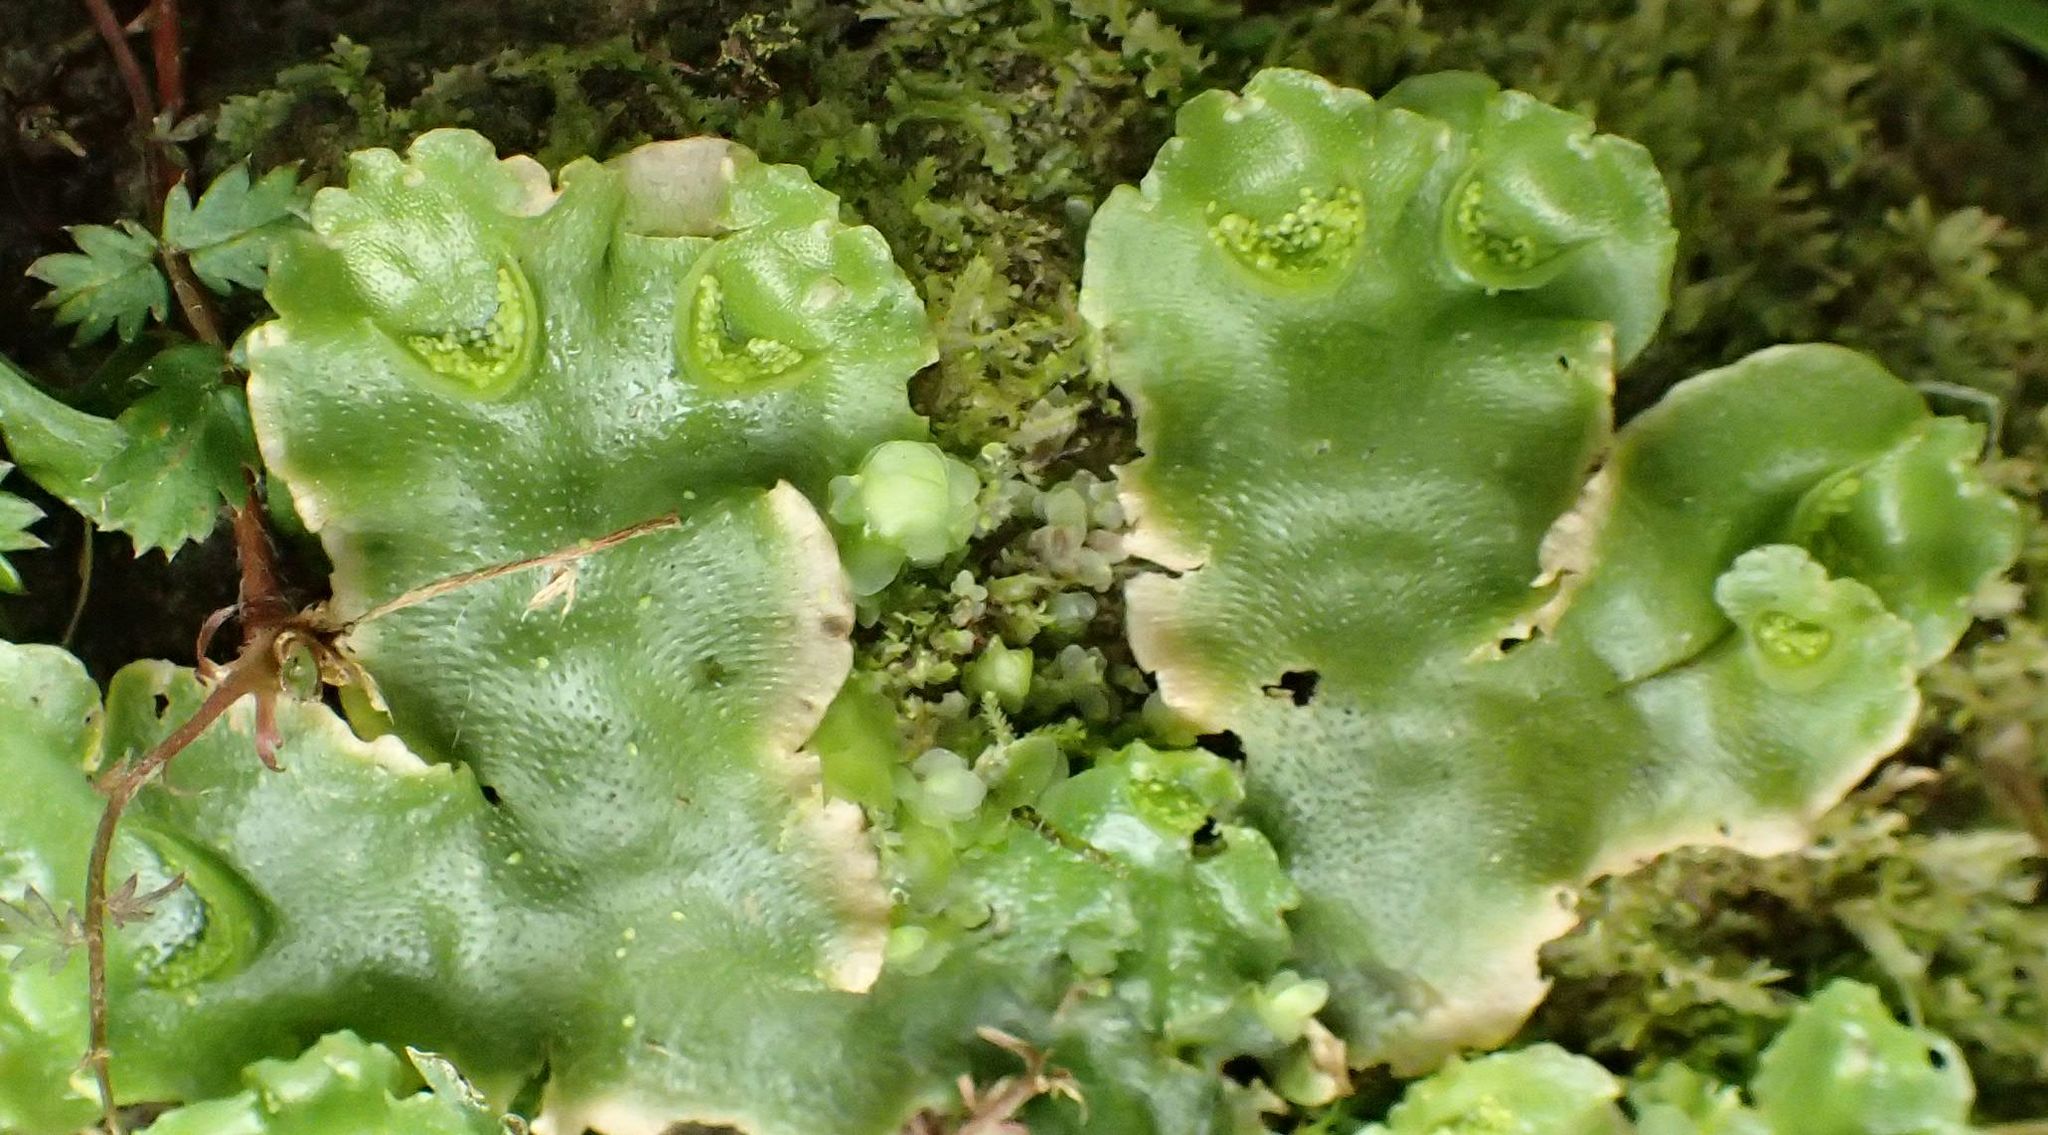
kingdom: Plantae
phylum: Marchantiophyta
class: Marchantiopsida
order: Lunulariales
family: Lunulariaceae
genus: Lunularia
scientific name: Lunularia cruciata
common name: Crescent-cup liverwort
